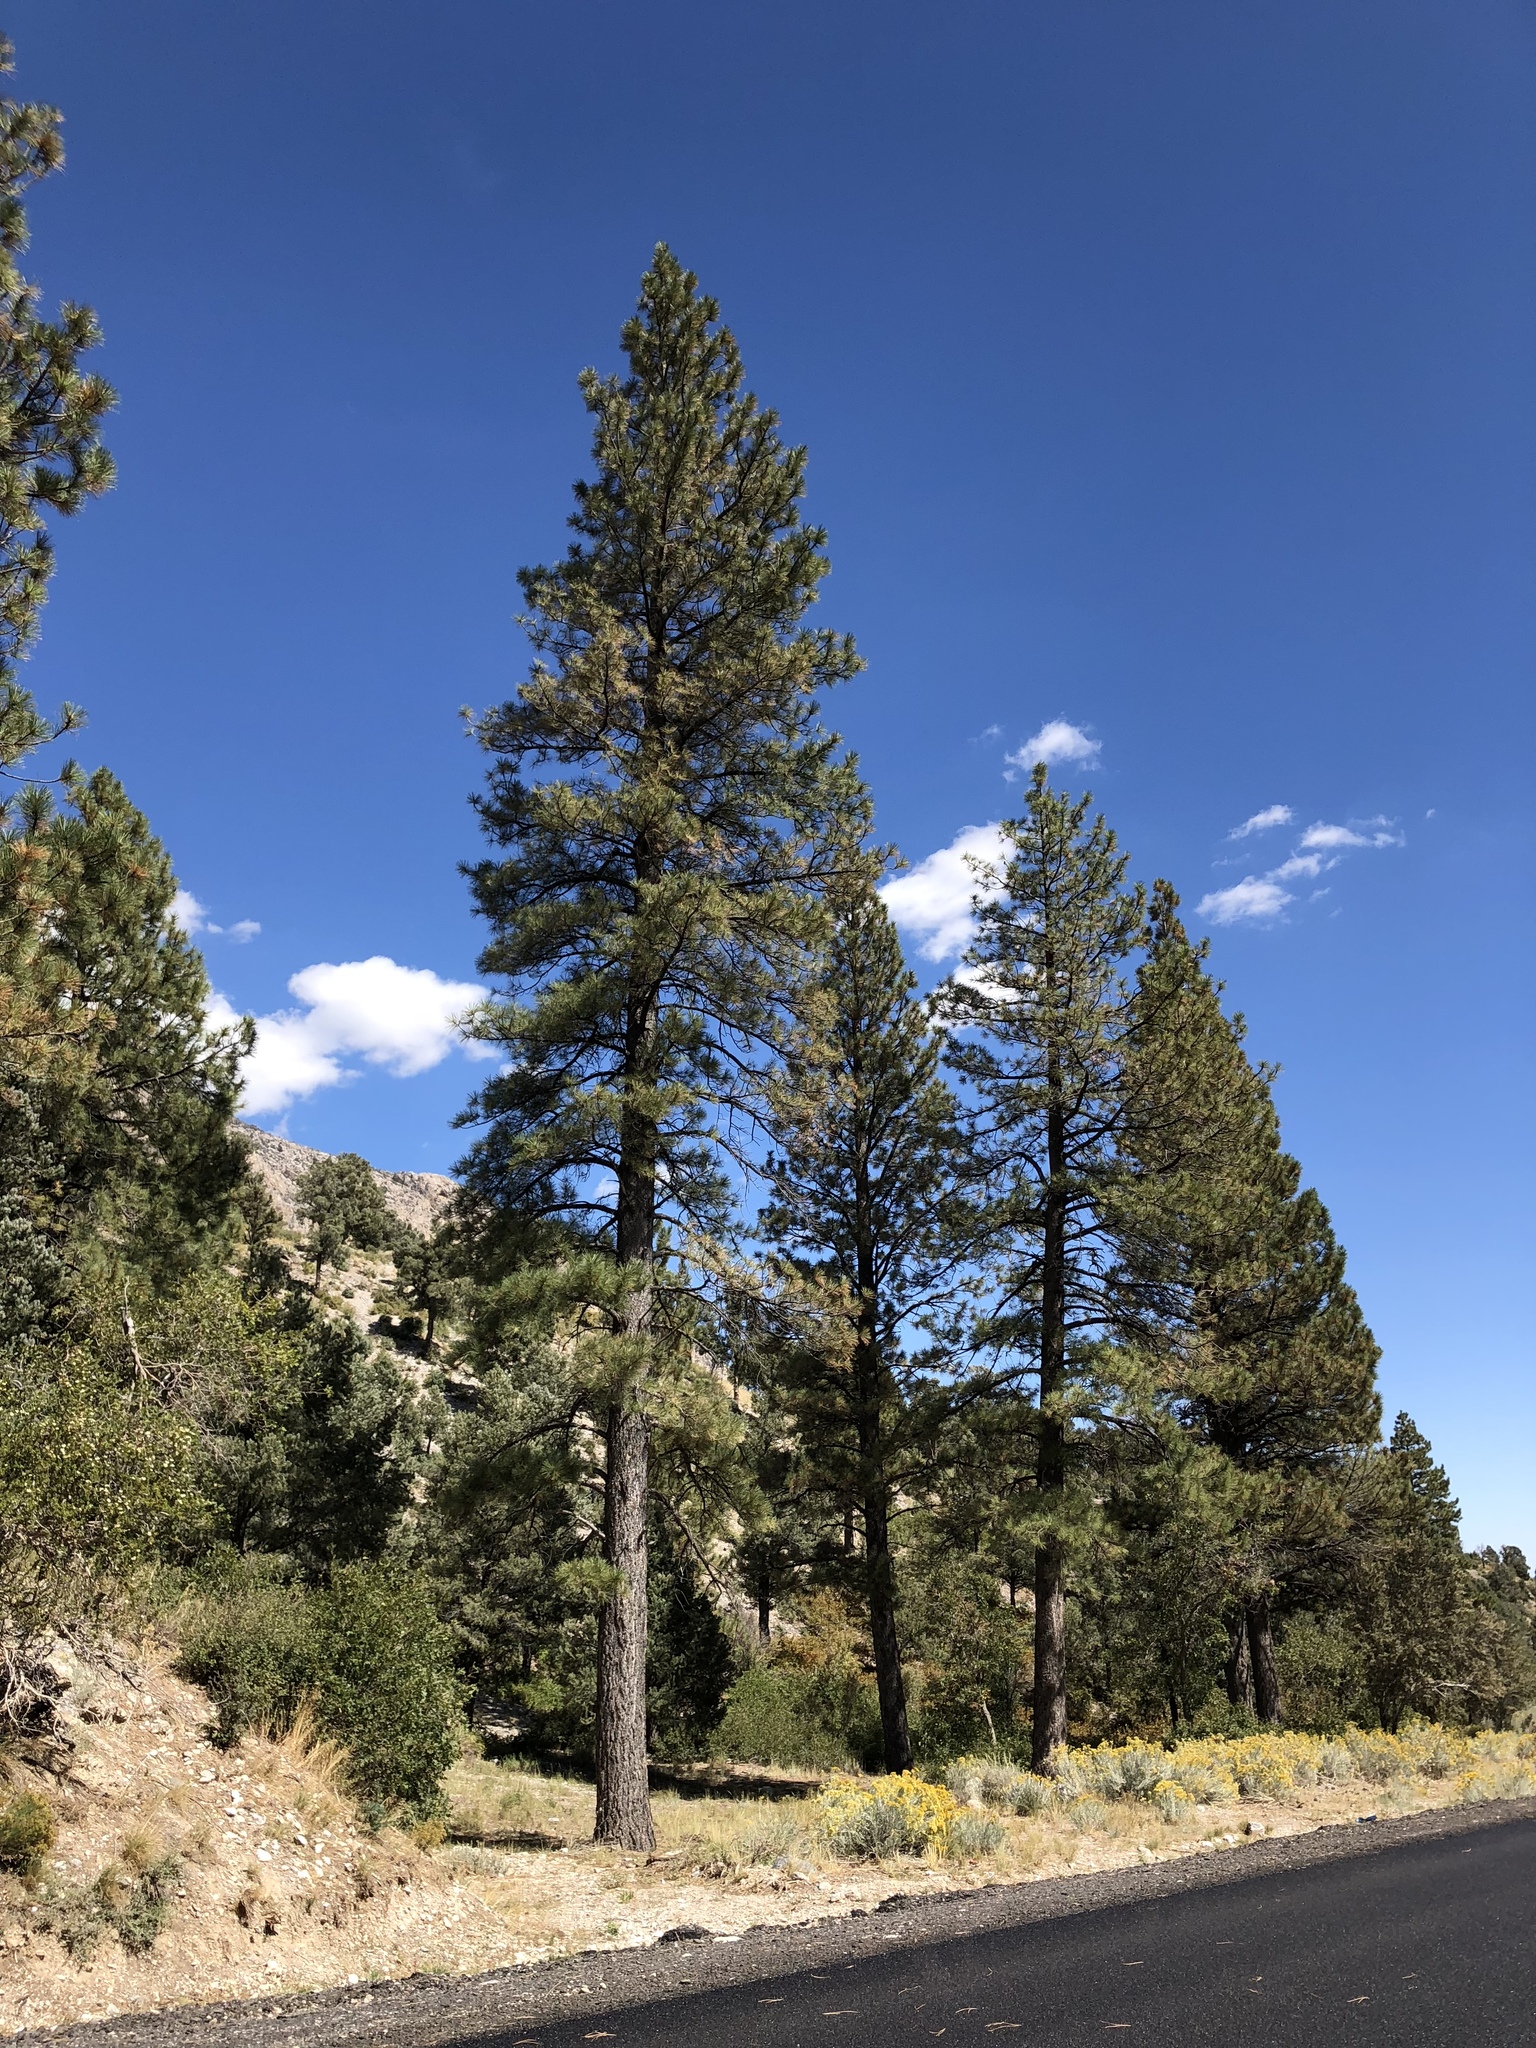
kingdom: Plantae
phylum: Tracheophyta
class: Pinopsida
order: Pinales
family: Pinaceae
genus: Pinus
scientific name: Pinus ponderosa
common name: Western yellow-pine
